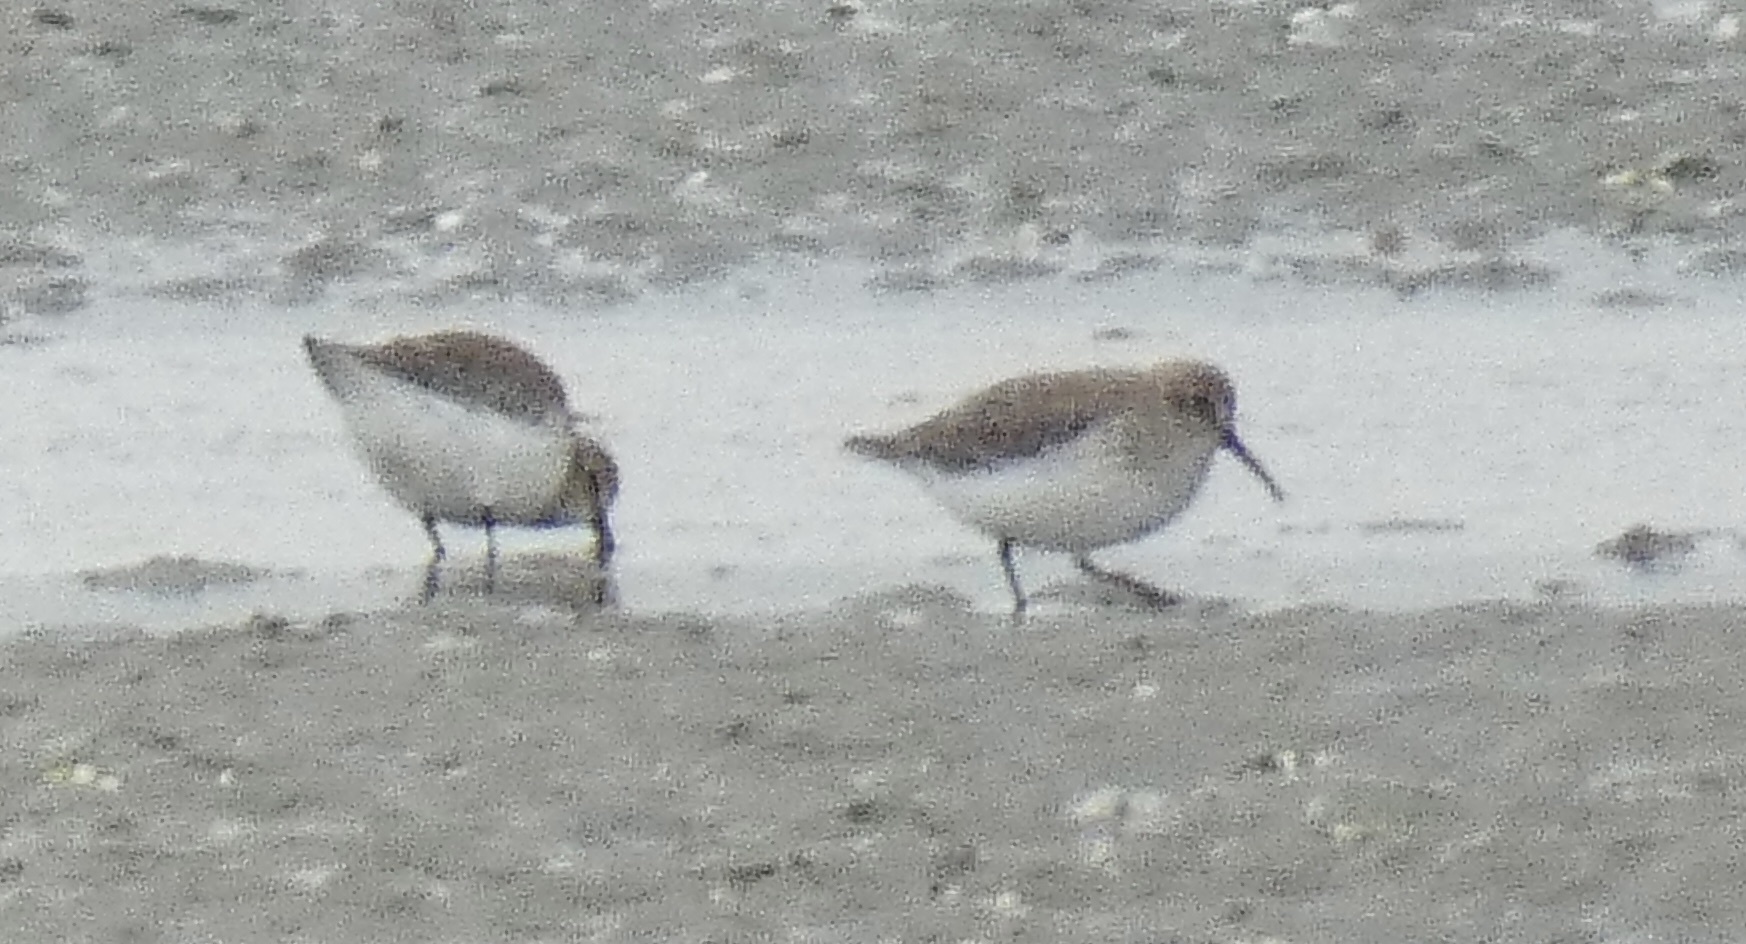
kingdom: Animalia
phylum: Chordata
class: Aves
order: Charadriiformes
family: Scolopacidae
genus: Calidris
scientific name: Calidris alpina
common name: Dunlin
